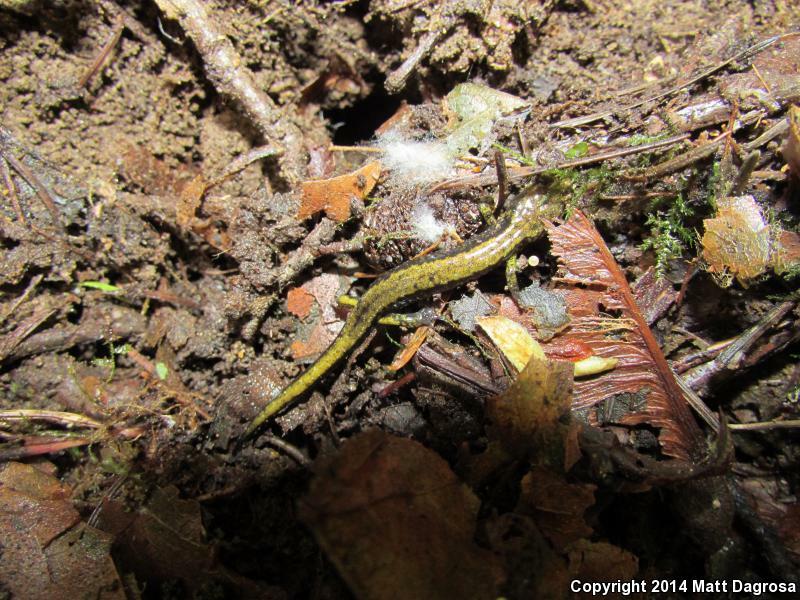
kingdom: Animalia
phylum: Chordata
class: Amphibia
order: Caudata
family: Plethodontidae
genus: Plethodon
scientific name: Plethodon dunni
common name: Dunn's salamander
